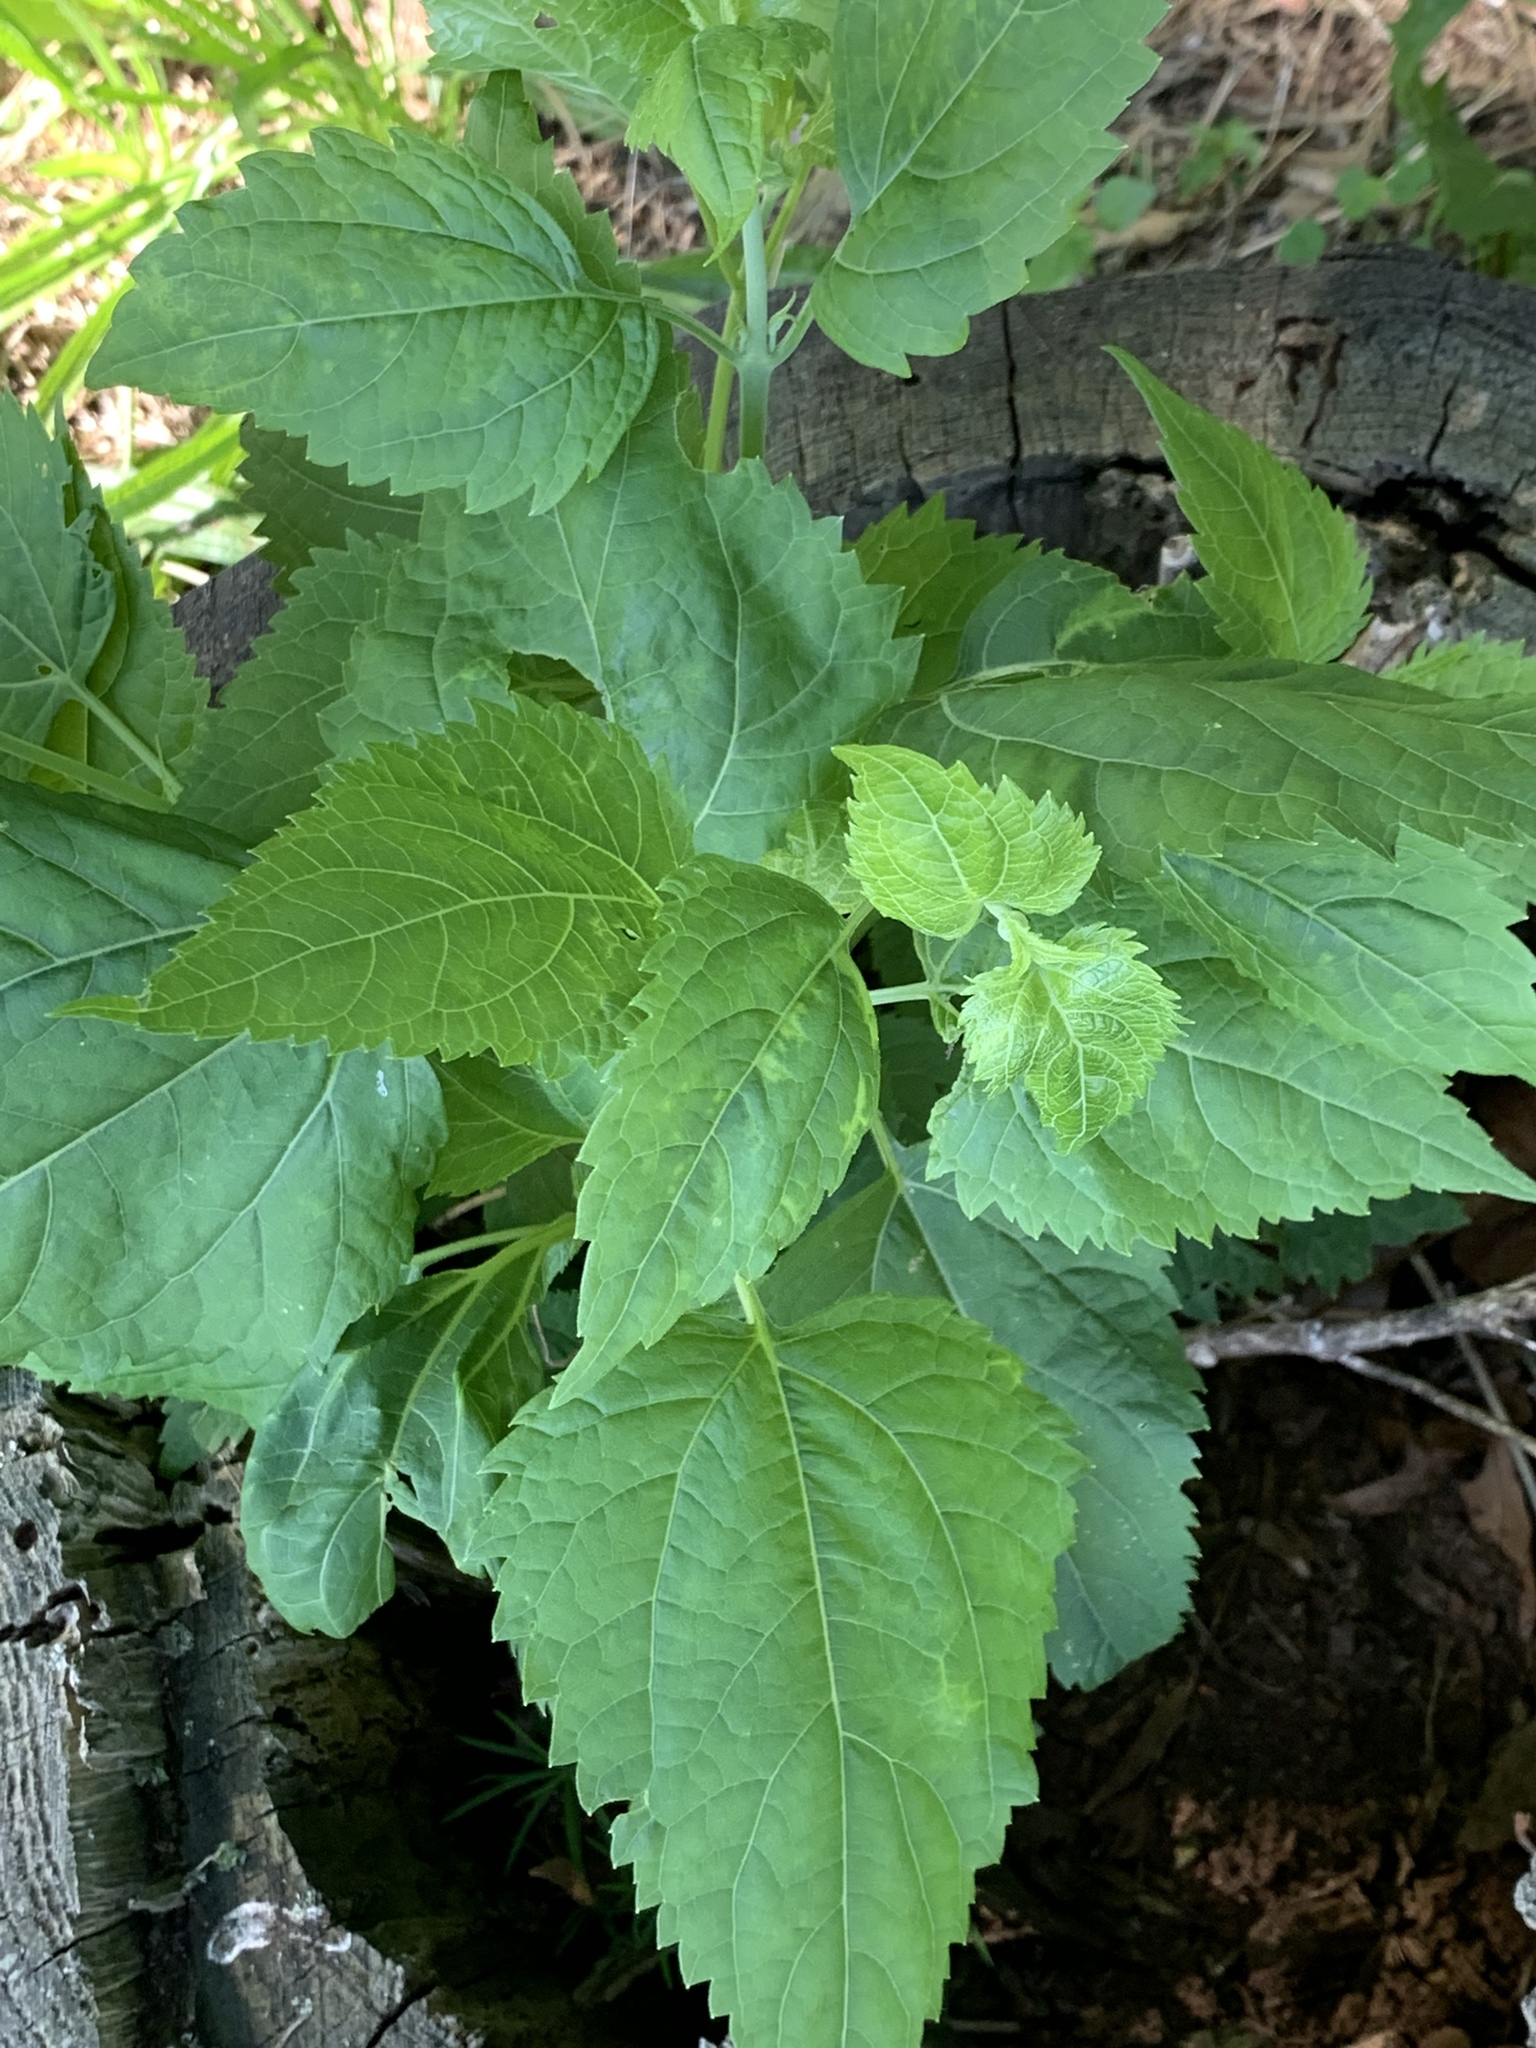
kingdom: Plantae
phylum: Tracheophyta
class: Magnoliopsida
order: Asterales
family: Asteraceae
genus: Ageratina
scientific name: Ageratina altissima
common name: White snakeroot
